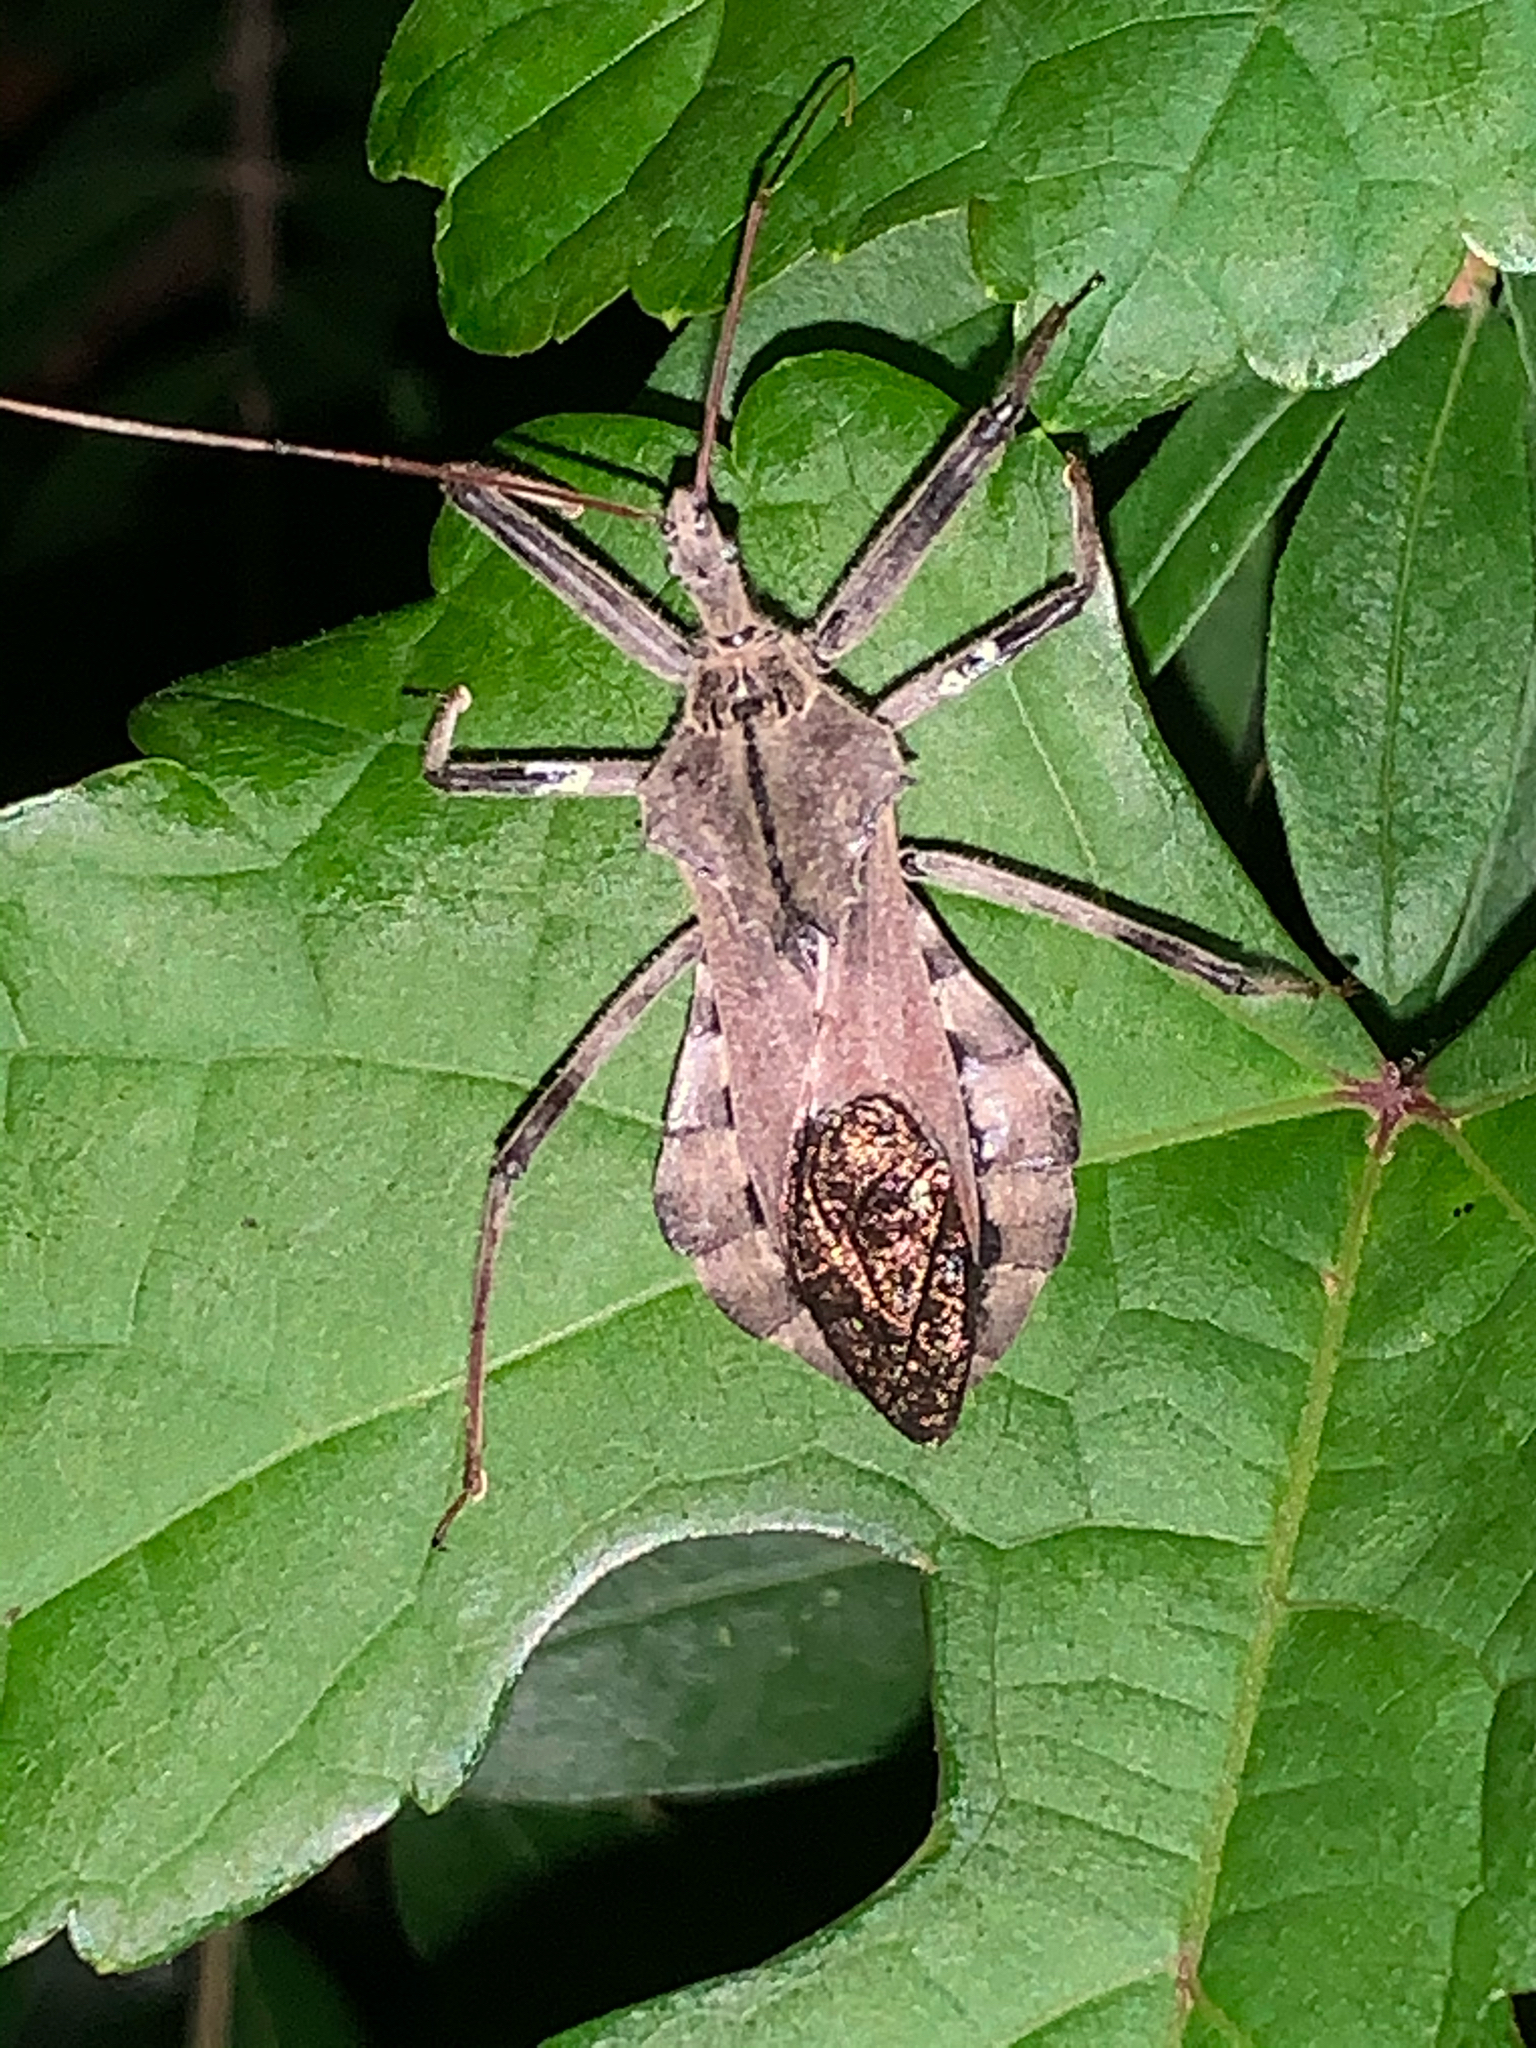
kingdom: Animalia
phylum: Arthropoda
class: Insecta
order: Hemiptera
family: Reduviidae
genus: Arilus
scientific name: Arilus cristatus
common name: North american wheel bug
